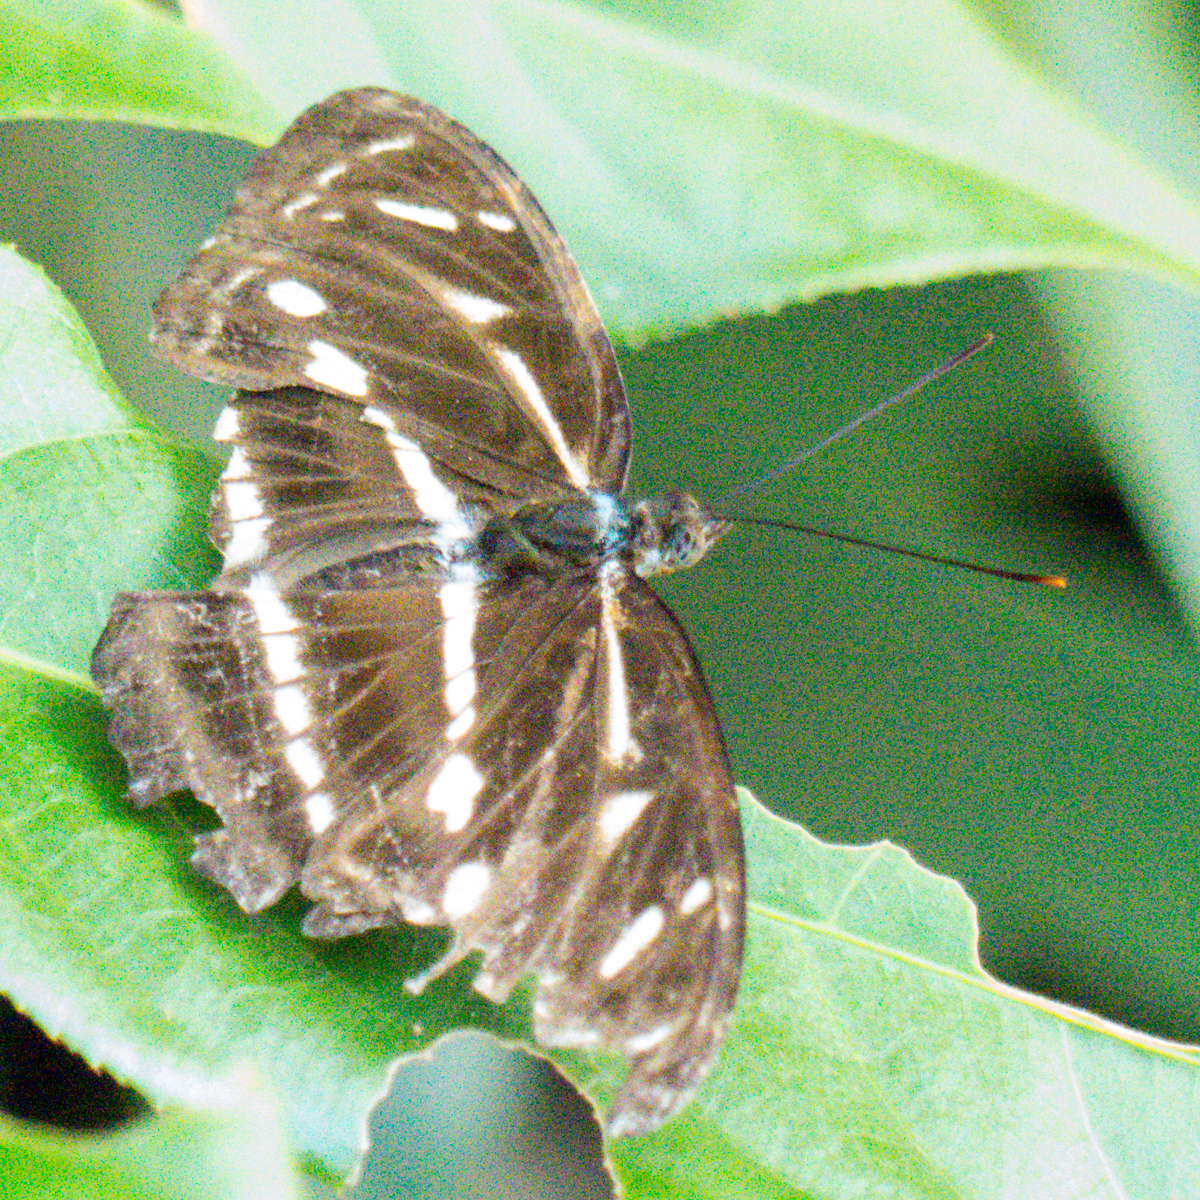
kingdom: Animalia
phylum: Arthropoda
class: Insecta
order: Lepidoptera
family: Nymphalidae
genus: Parathyma
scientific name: Parathyma kanwa
